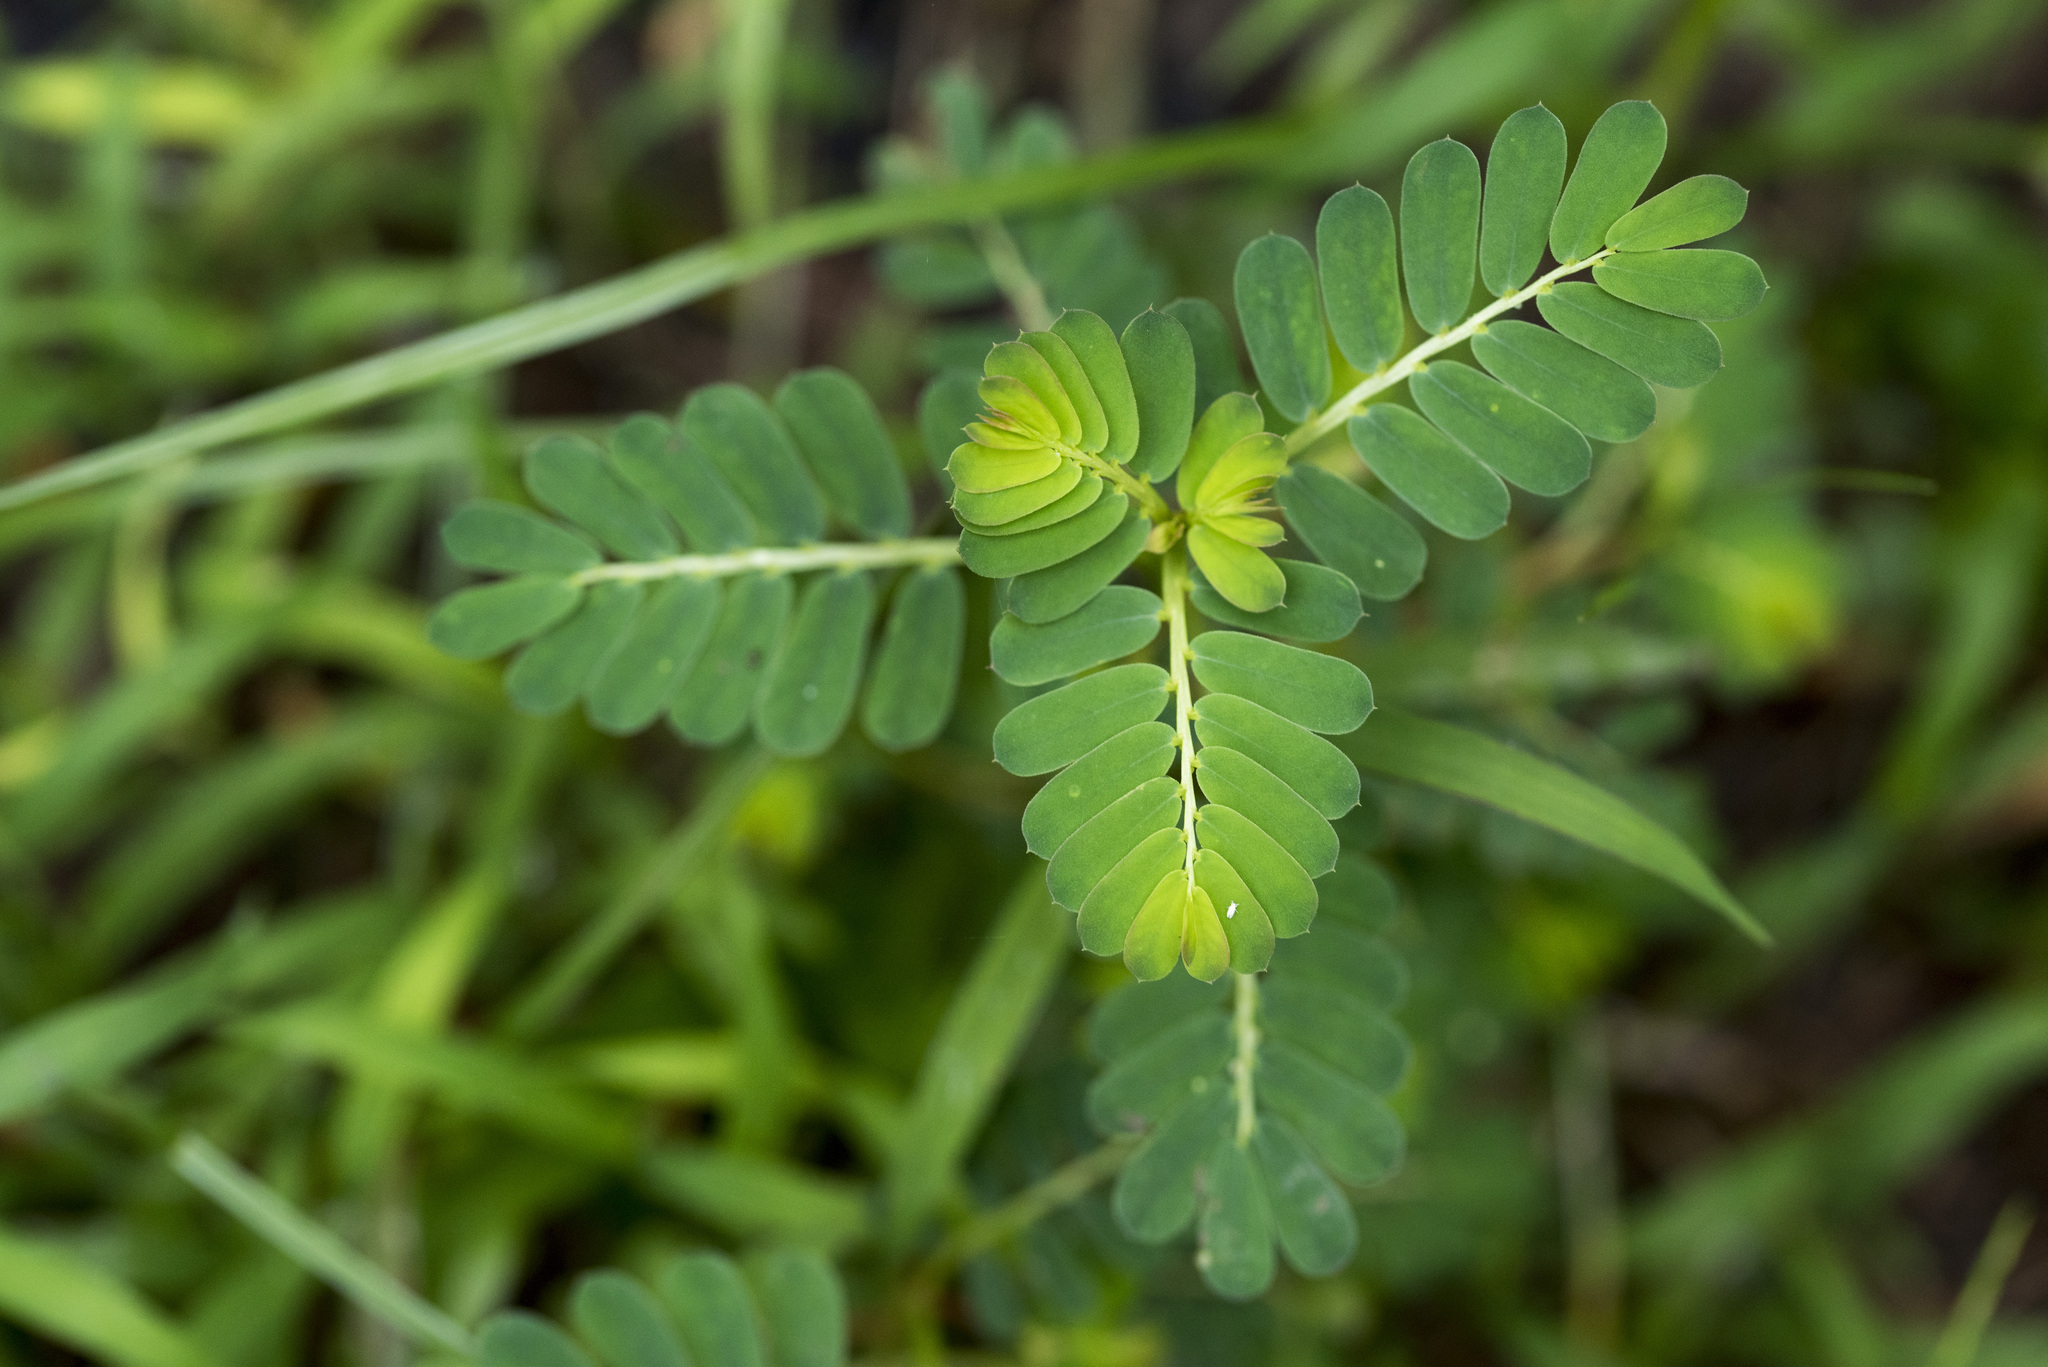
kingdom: Plantae
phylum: Tracheophyta
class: Magnoliopsida
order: Malpighiales
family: Phyllanthaceae
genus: Phyllanthus
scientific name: Phyllanthus urinaria
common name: Chamber bitter
